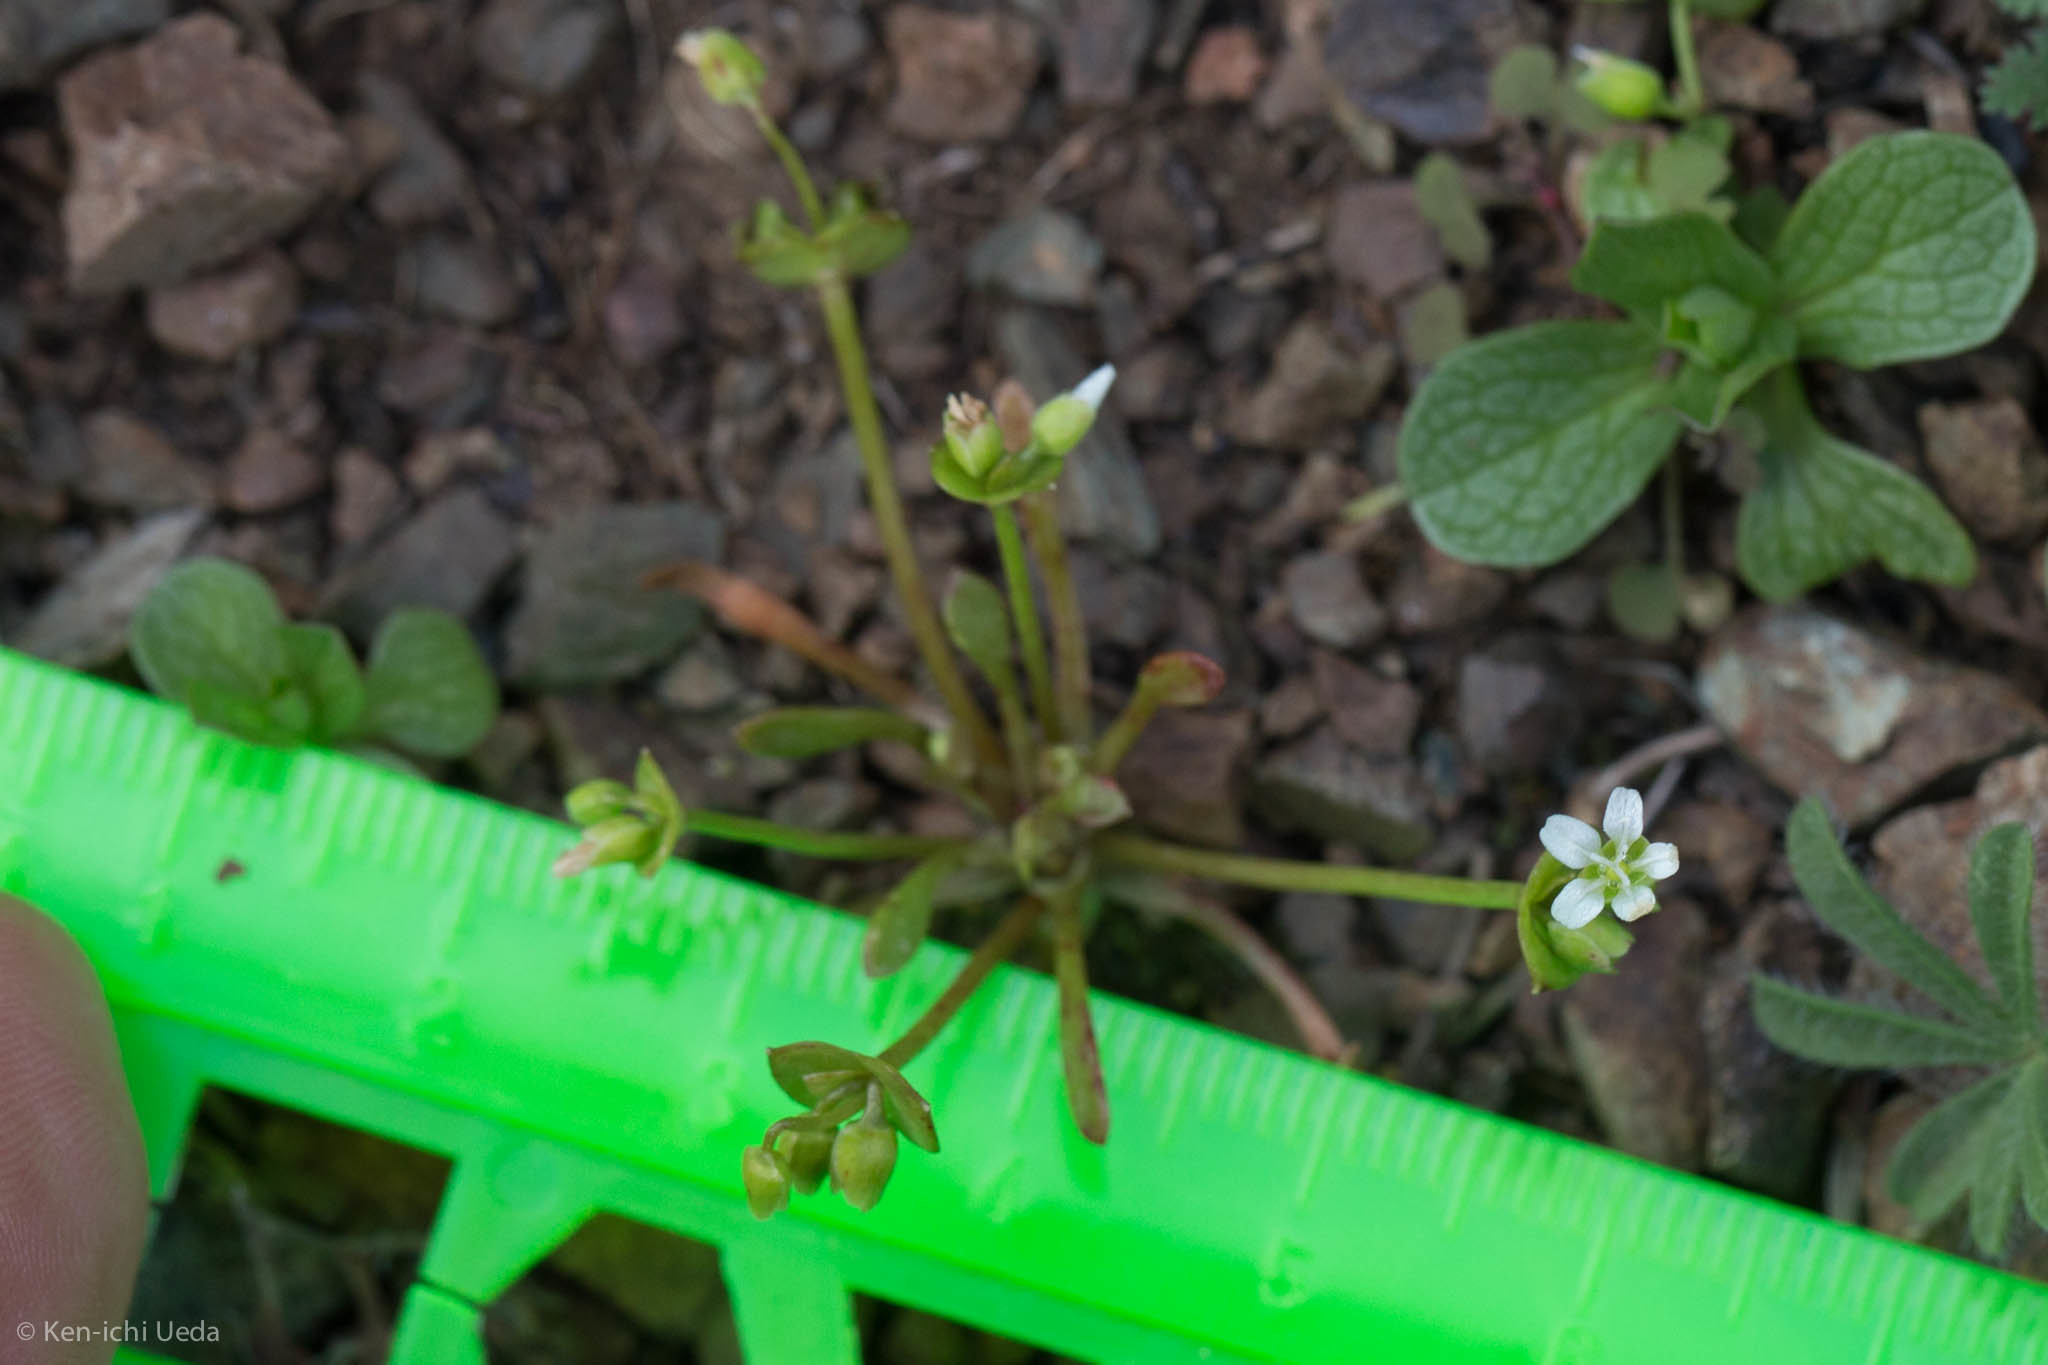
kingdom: Plantae
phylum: Tracheophyta
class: Magnoliopsida
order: Caryophyllales
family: Montiaceae
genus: Claytonia
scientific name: Claytonia parviflora
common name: Indian-lettuce
